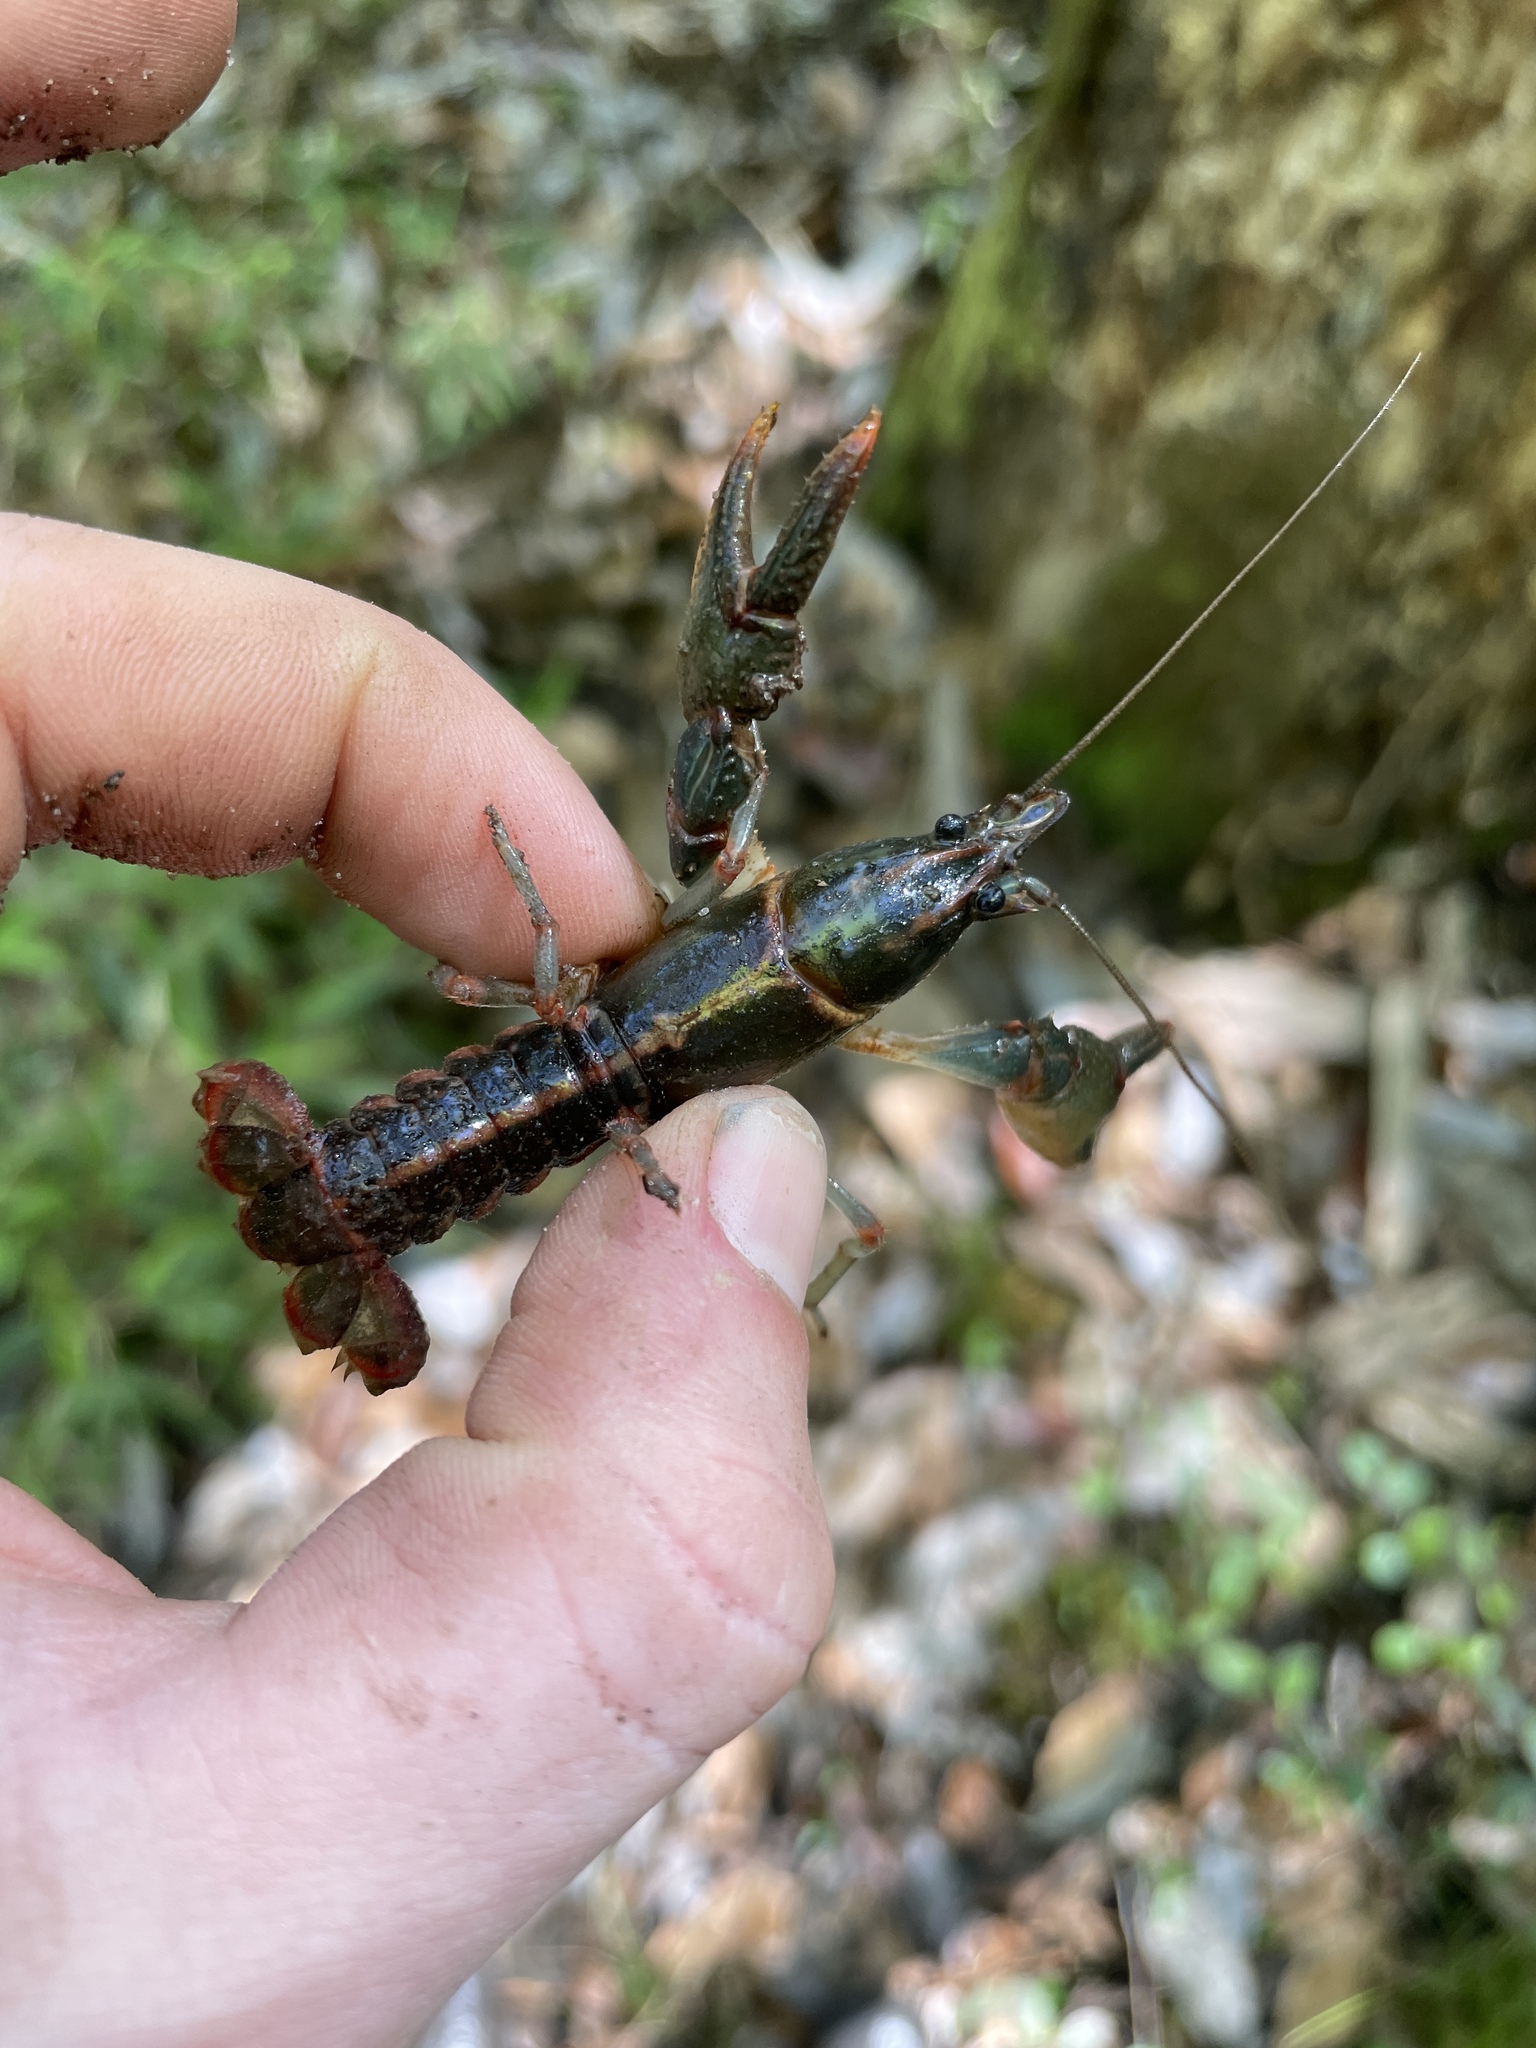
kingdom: Animalia
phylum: Arthropoda
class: Malacostraca
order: Decapoda
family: Cambaridae
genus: Lacunicambarus
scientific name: Lacunicambarus mobilensis
